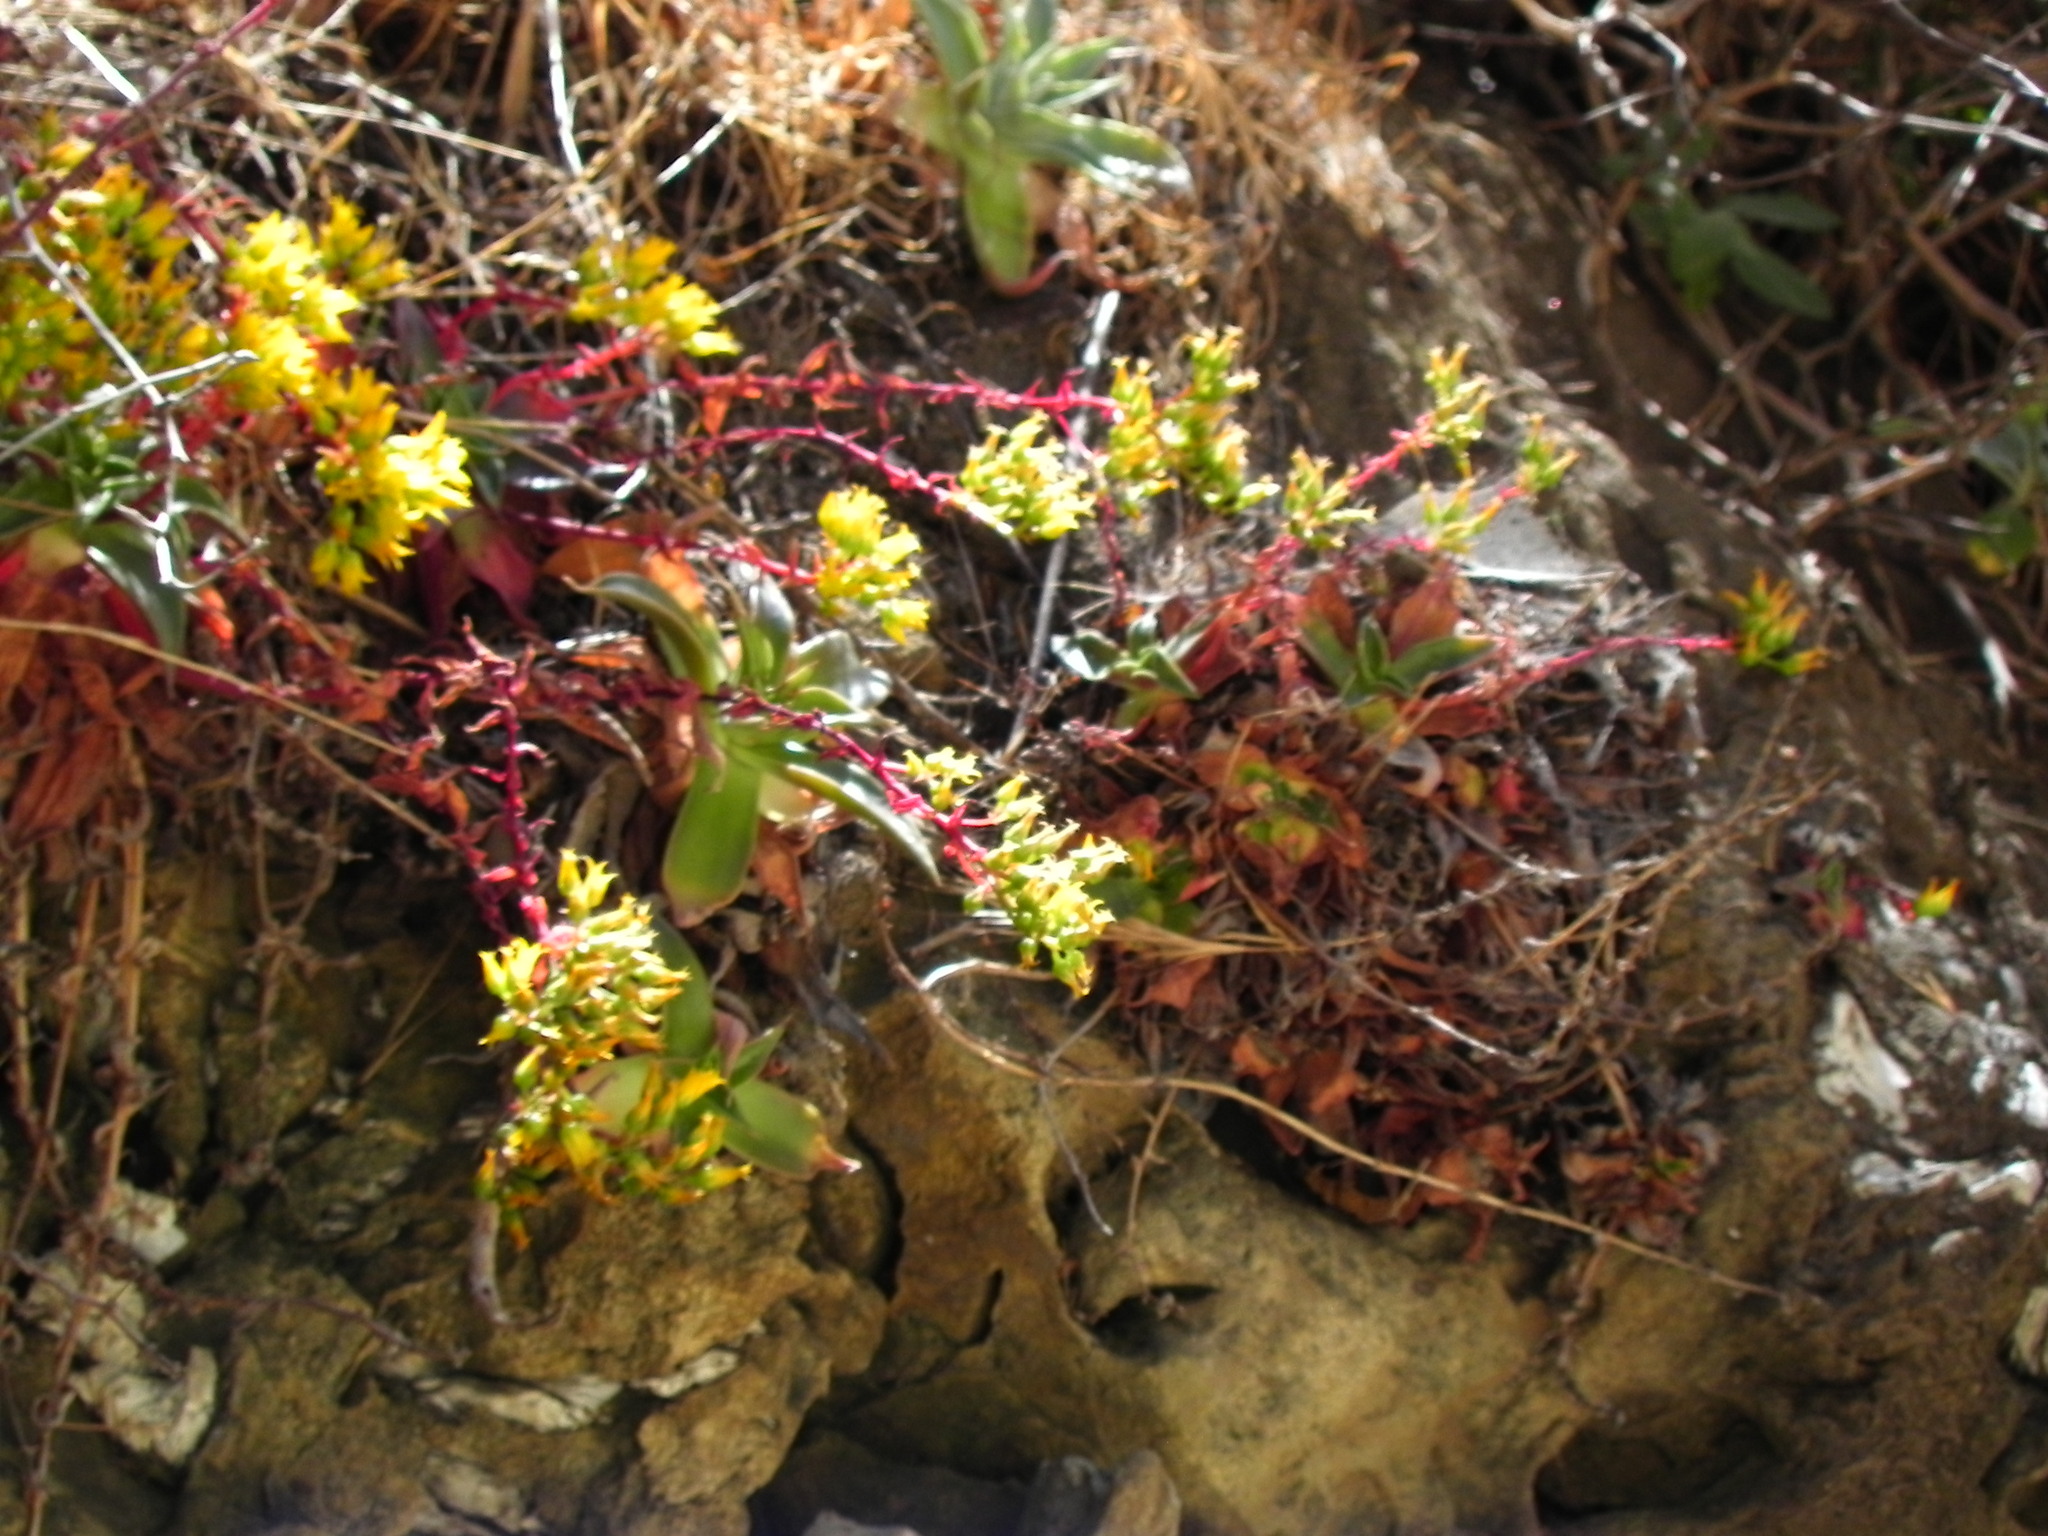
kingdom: Plantae
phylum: Tracheophyta
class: Magnoliopsida
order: Saxifragales
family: Crassulaceae
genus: Dudleya
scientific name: Dudleya cymosa
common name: Canyon dudleya
